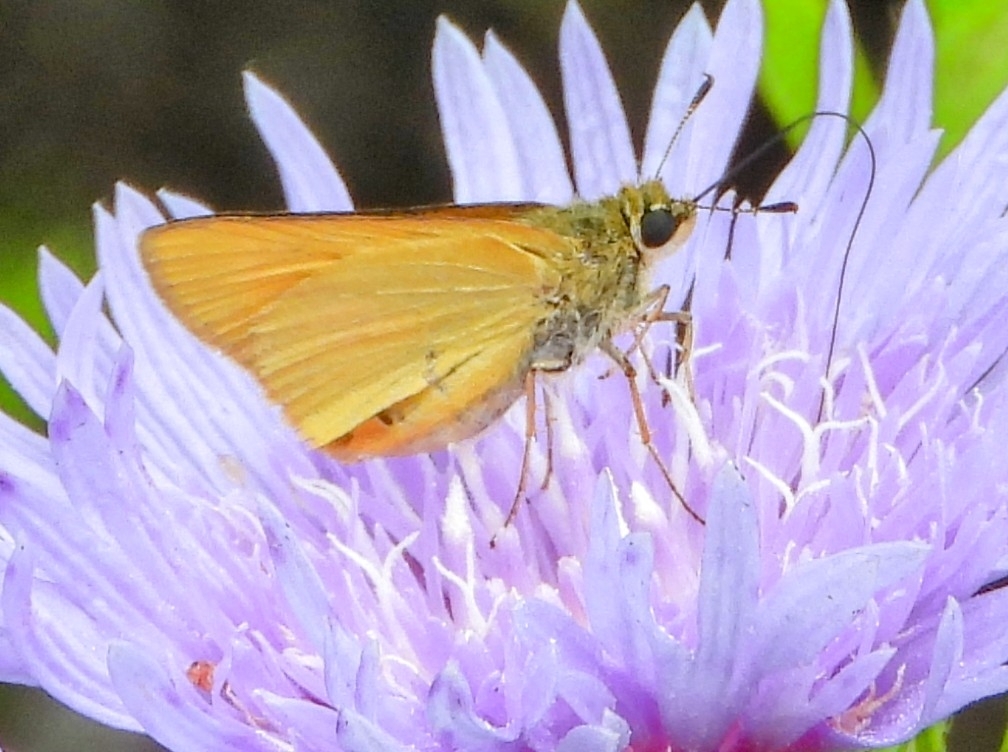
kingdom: Animalia
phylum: Arthropoda
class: Insecta
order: Lepidoptera
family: Hesperiidae
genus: Atrytone
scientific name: Atrytone delaware
